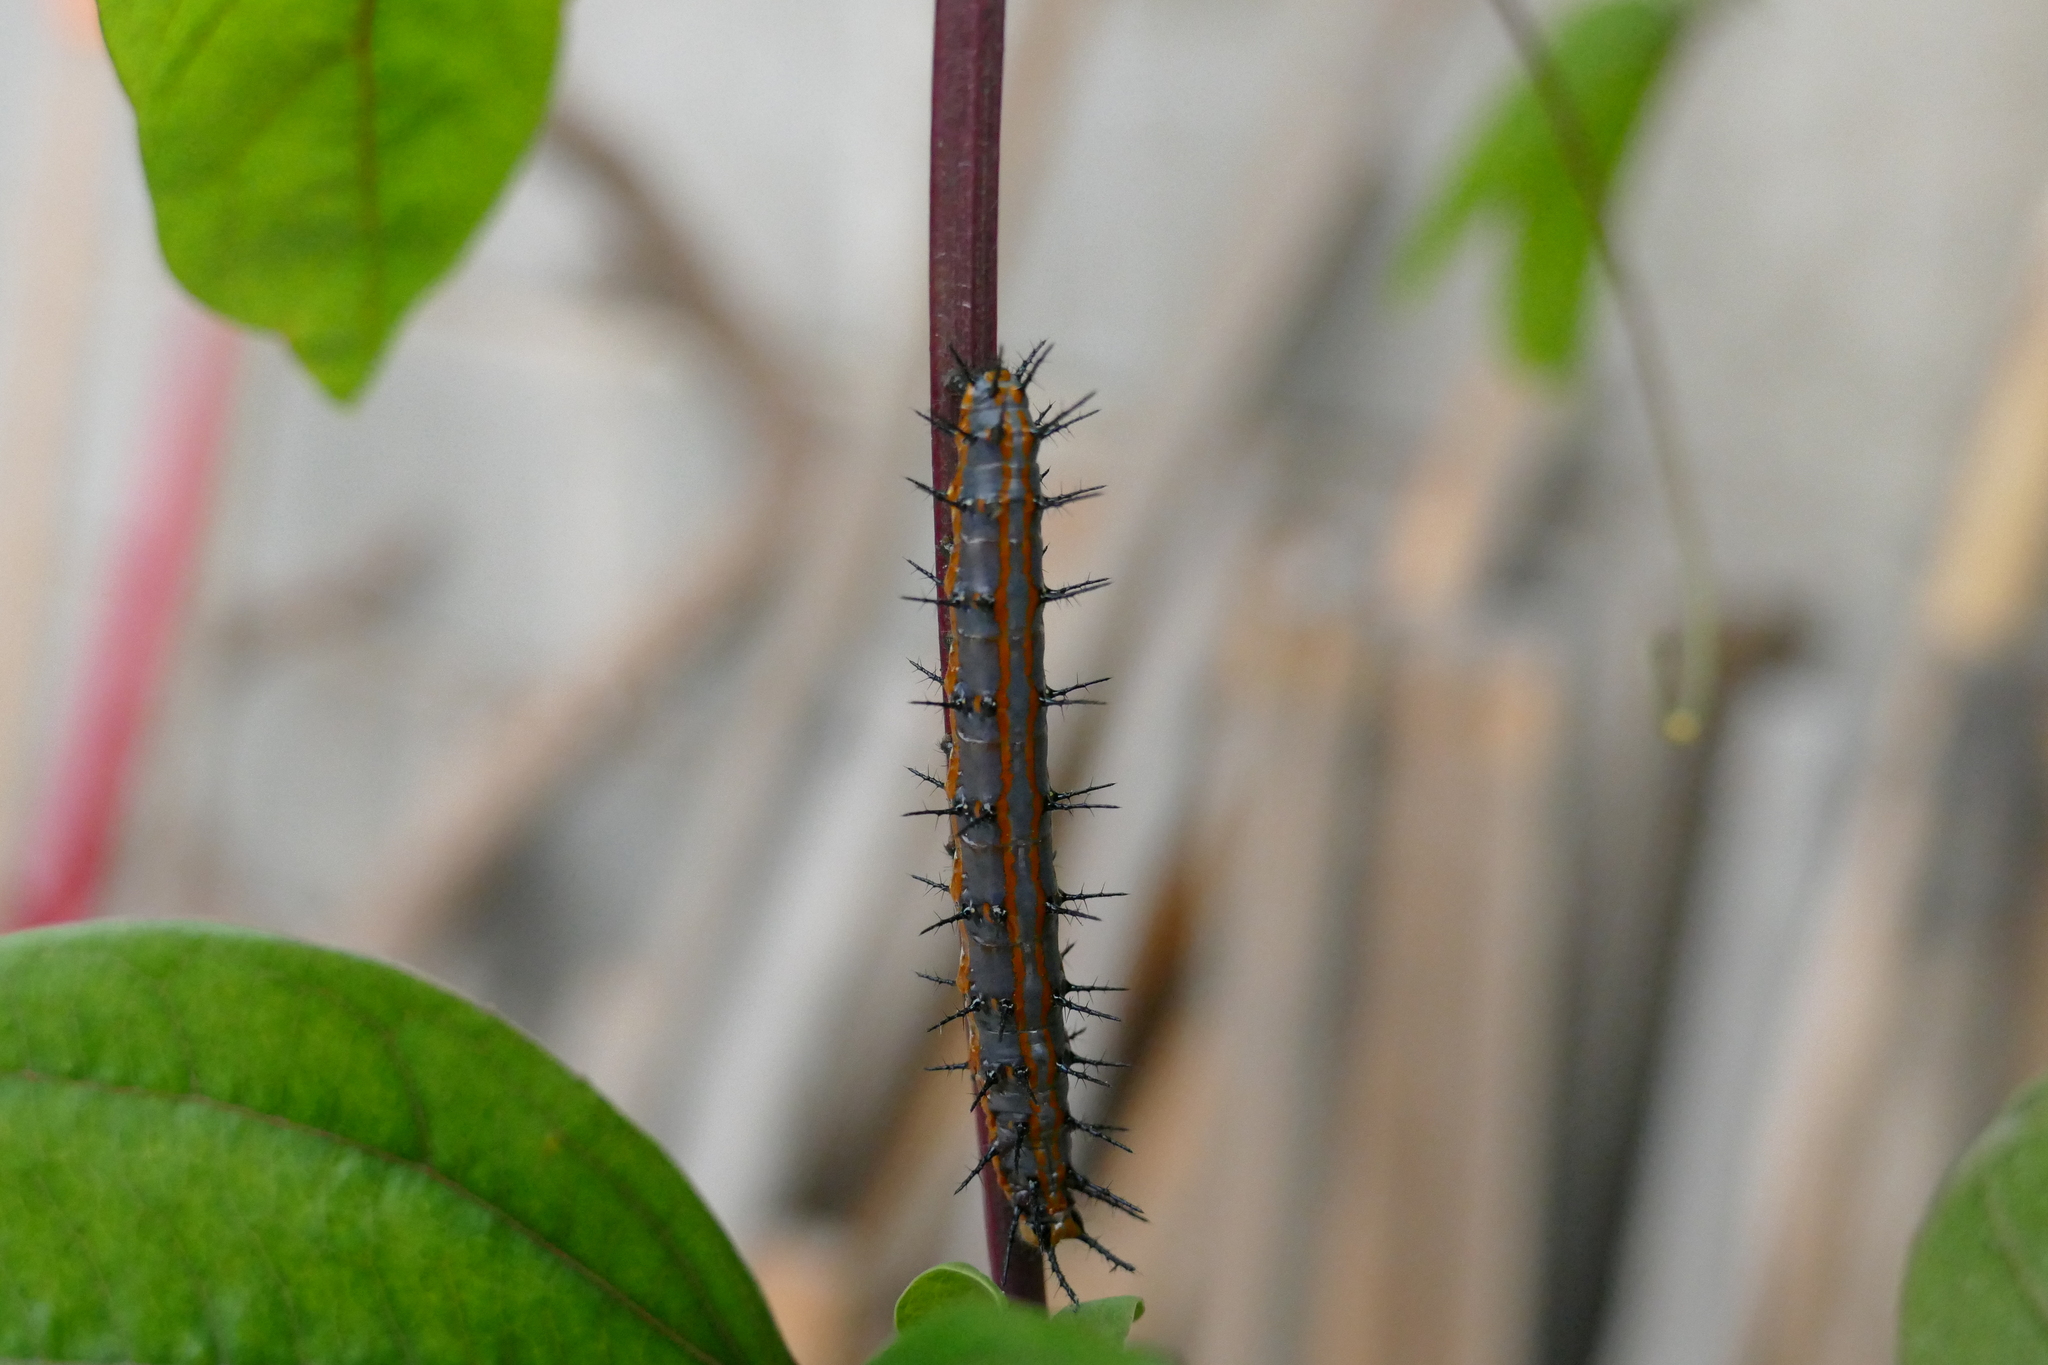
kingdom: Animalia
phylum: Arthropoda
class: Insecta
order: Lepidoptera
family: Nymphalidae
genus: Dione
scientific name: Dione vanillae
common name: Gulf fritillary
